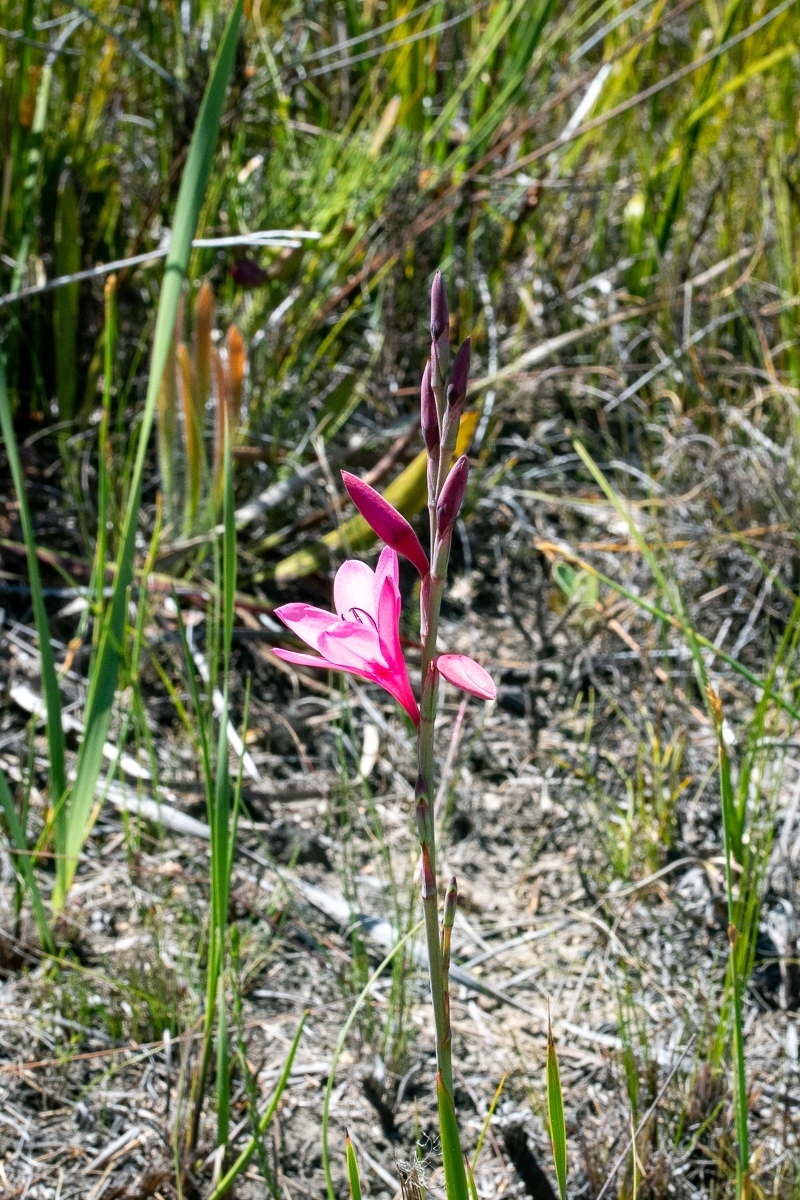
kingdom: Plantae
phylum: Tracheophyta
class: Liliopsida
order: Asparagales
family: Iridaceae
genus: Watsonia
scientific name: Watsonia borbonica
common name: Bugle-lily
